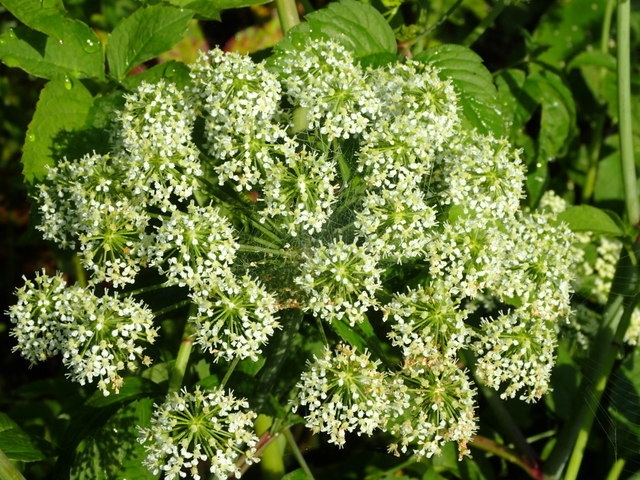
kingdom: Plantae
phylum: Tracheophyta
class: Magnoliopsida
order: Apiales
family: Apiaceae
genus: Cicuta
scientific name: Cicuta maculata
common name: Spotted cowbane
